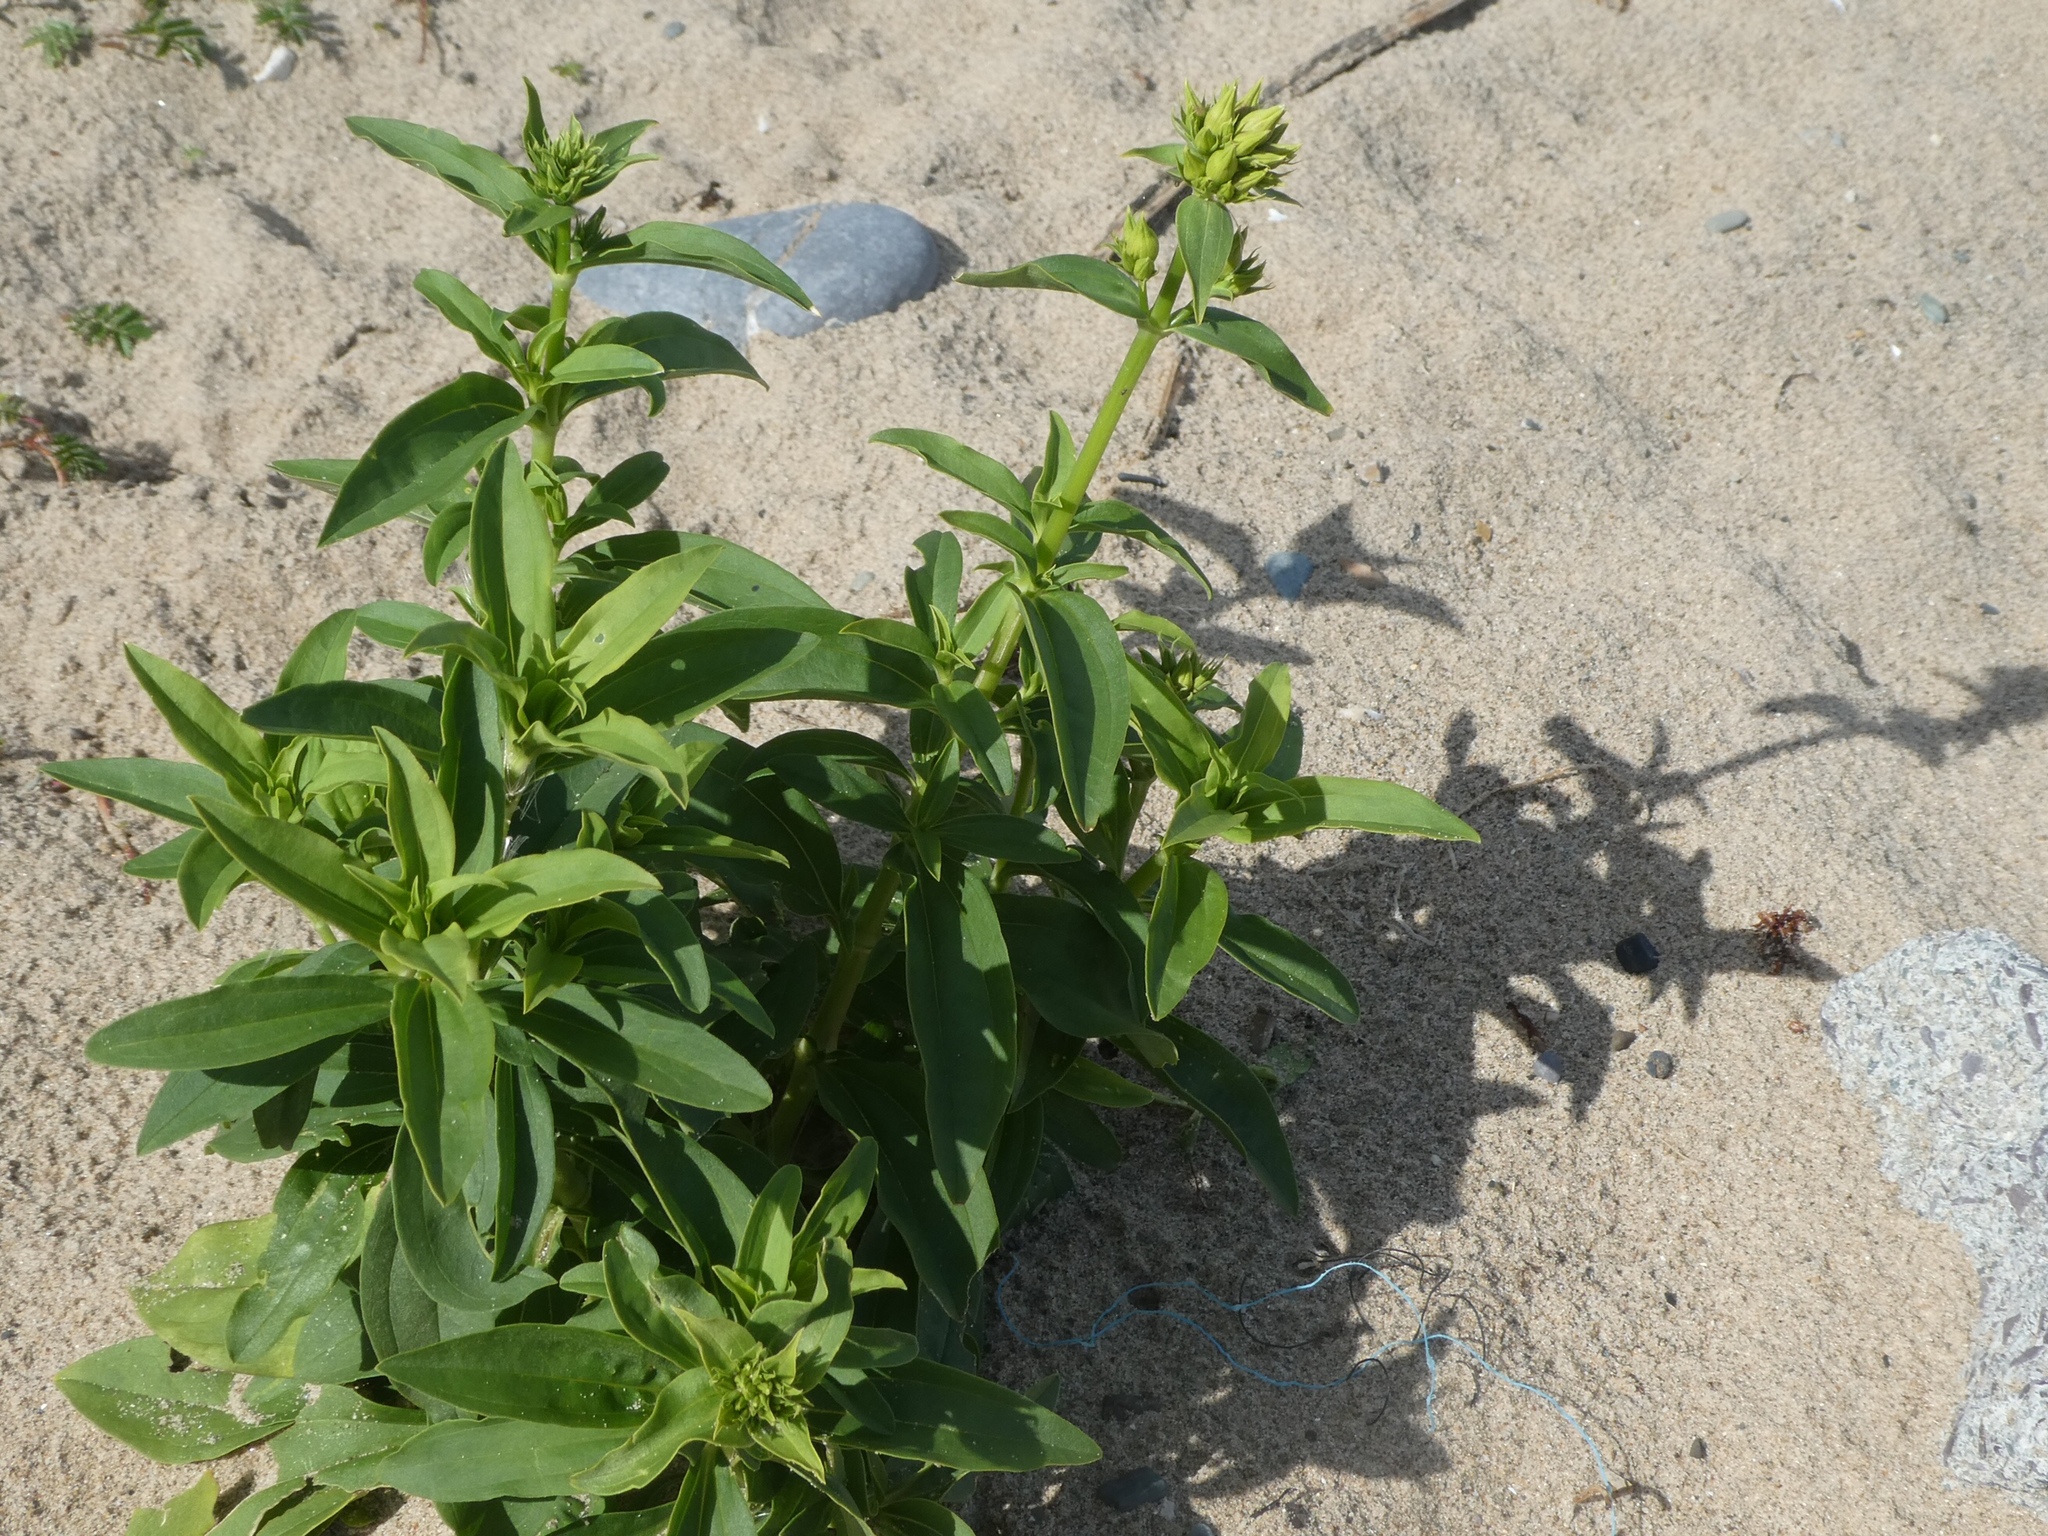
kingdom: Plantae
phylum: Tracheophyta
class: Magnoliopsida
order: Caryophyllales
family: Caryophyllaceae
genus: Saponaria
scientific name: Saponaria officinalis
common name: Soapwort
